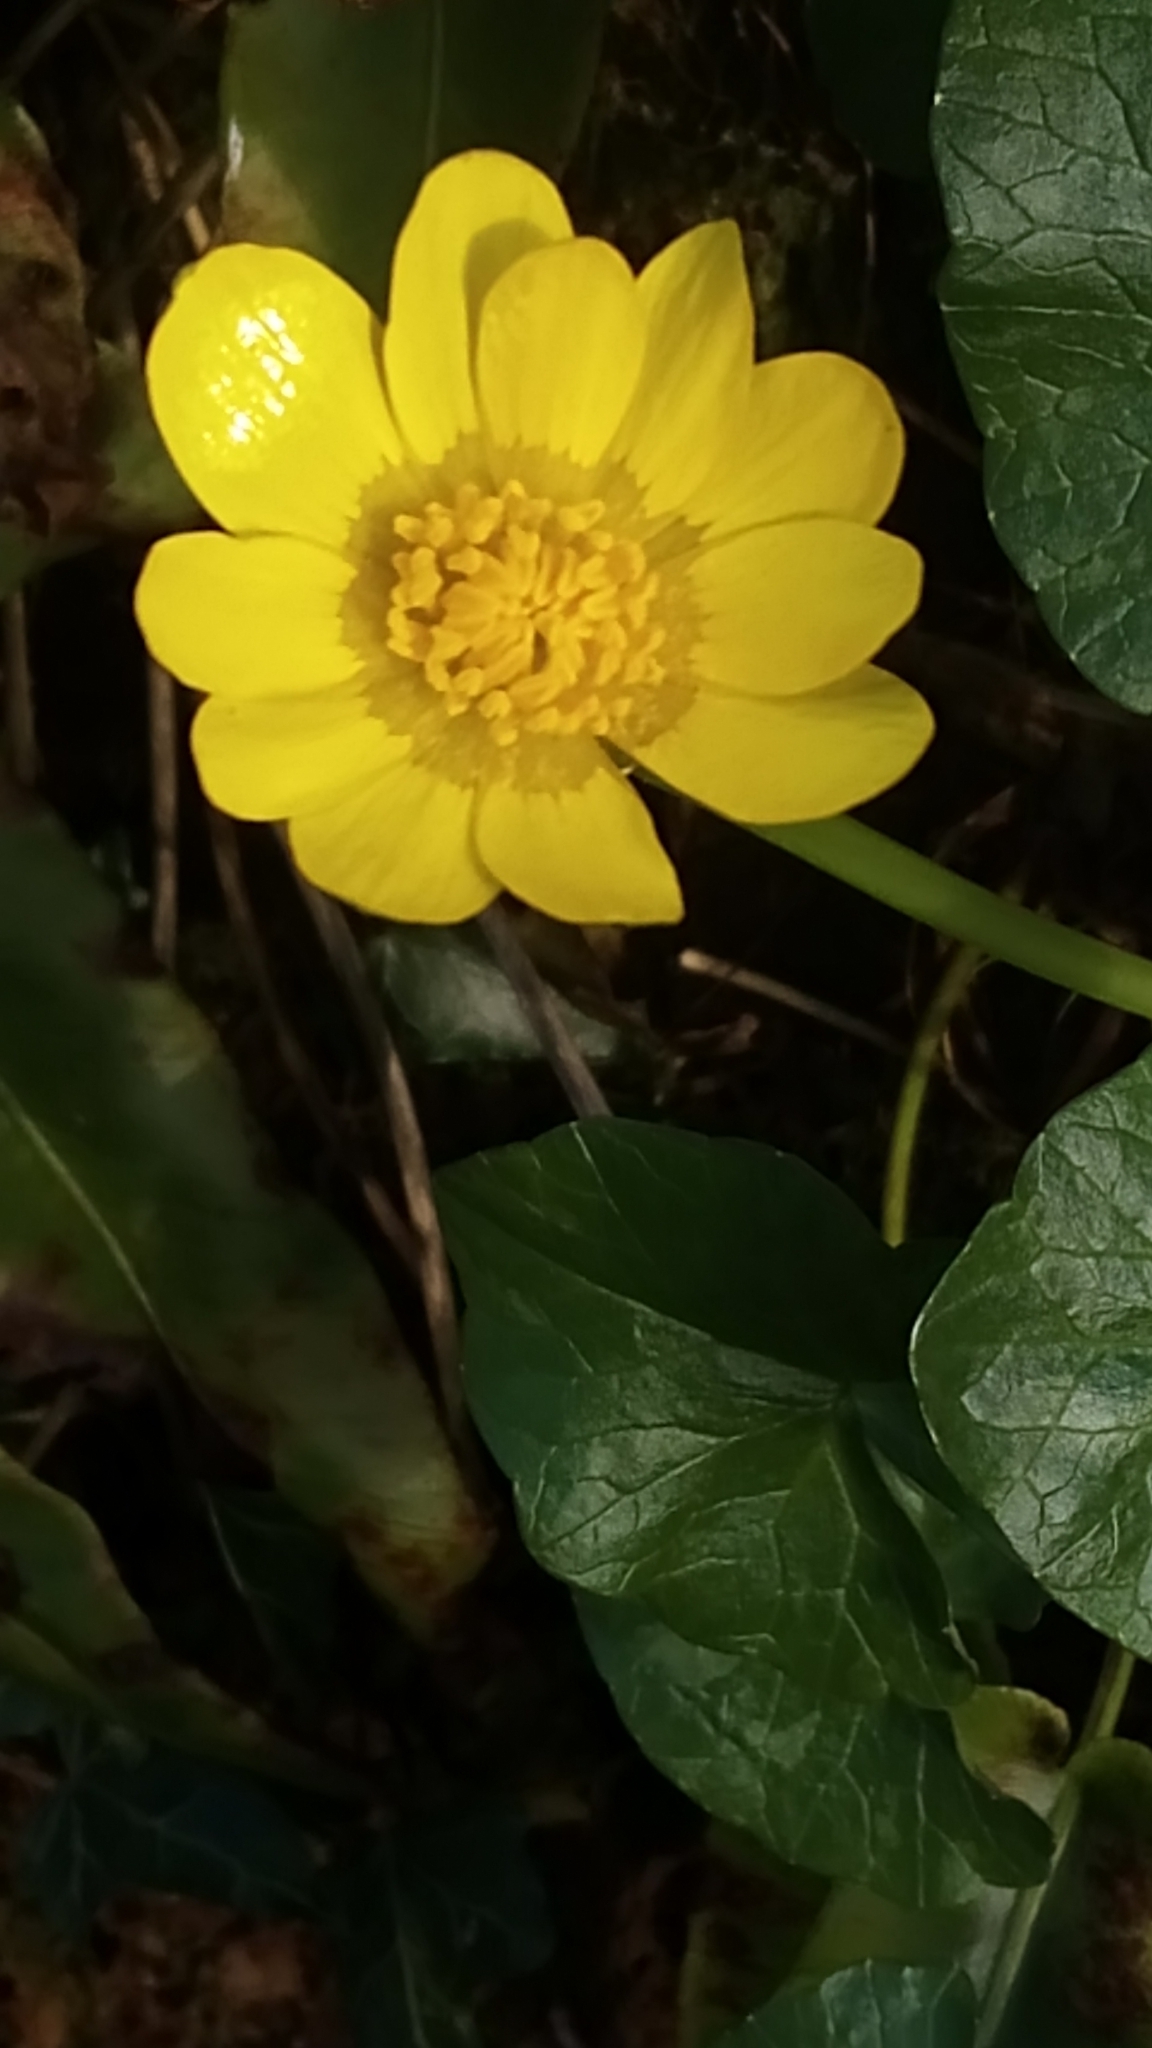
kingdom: Plantae
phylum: Tracheophyta
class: Magnoliopsida
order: Ranunculales
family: Ranunculaceae
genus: Ficaria
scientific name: Ficaria verna
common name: Lesser celandine
